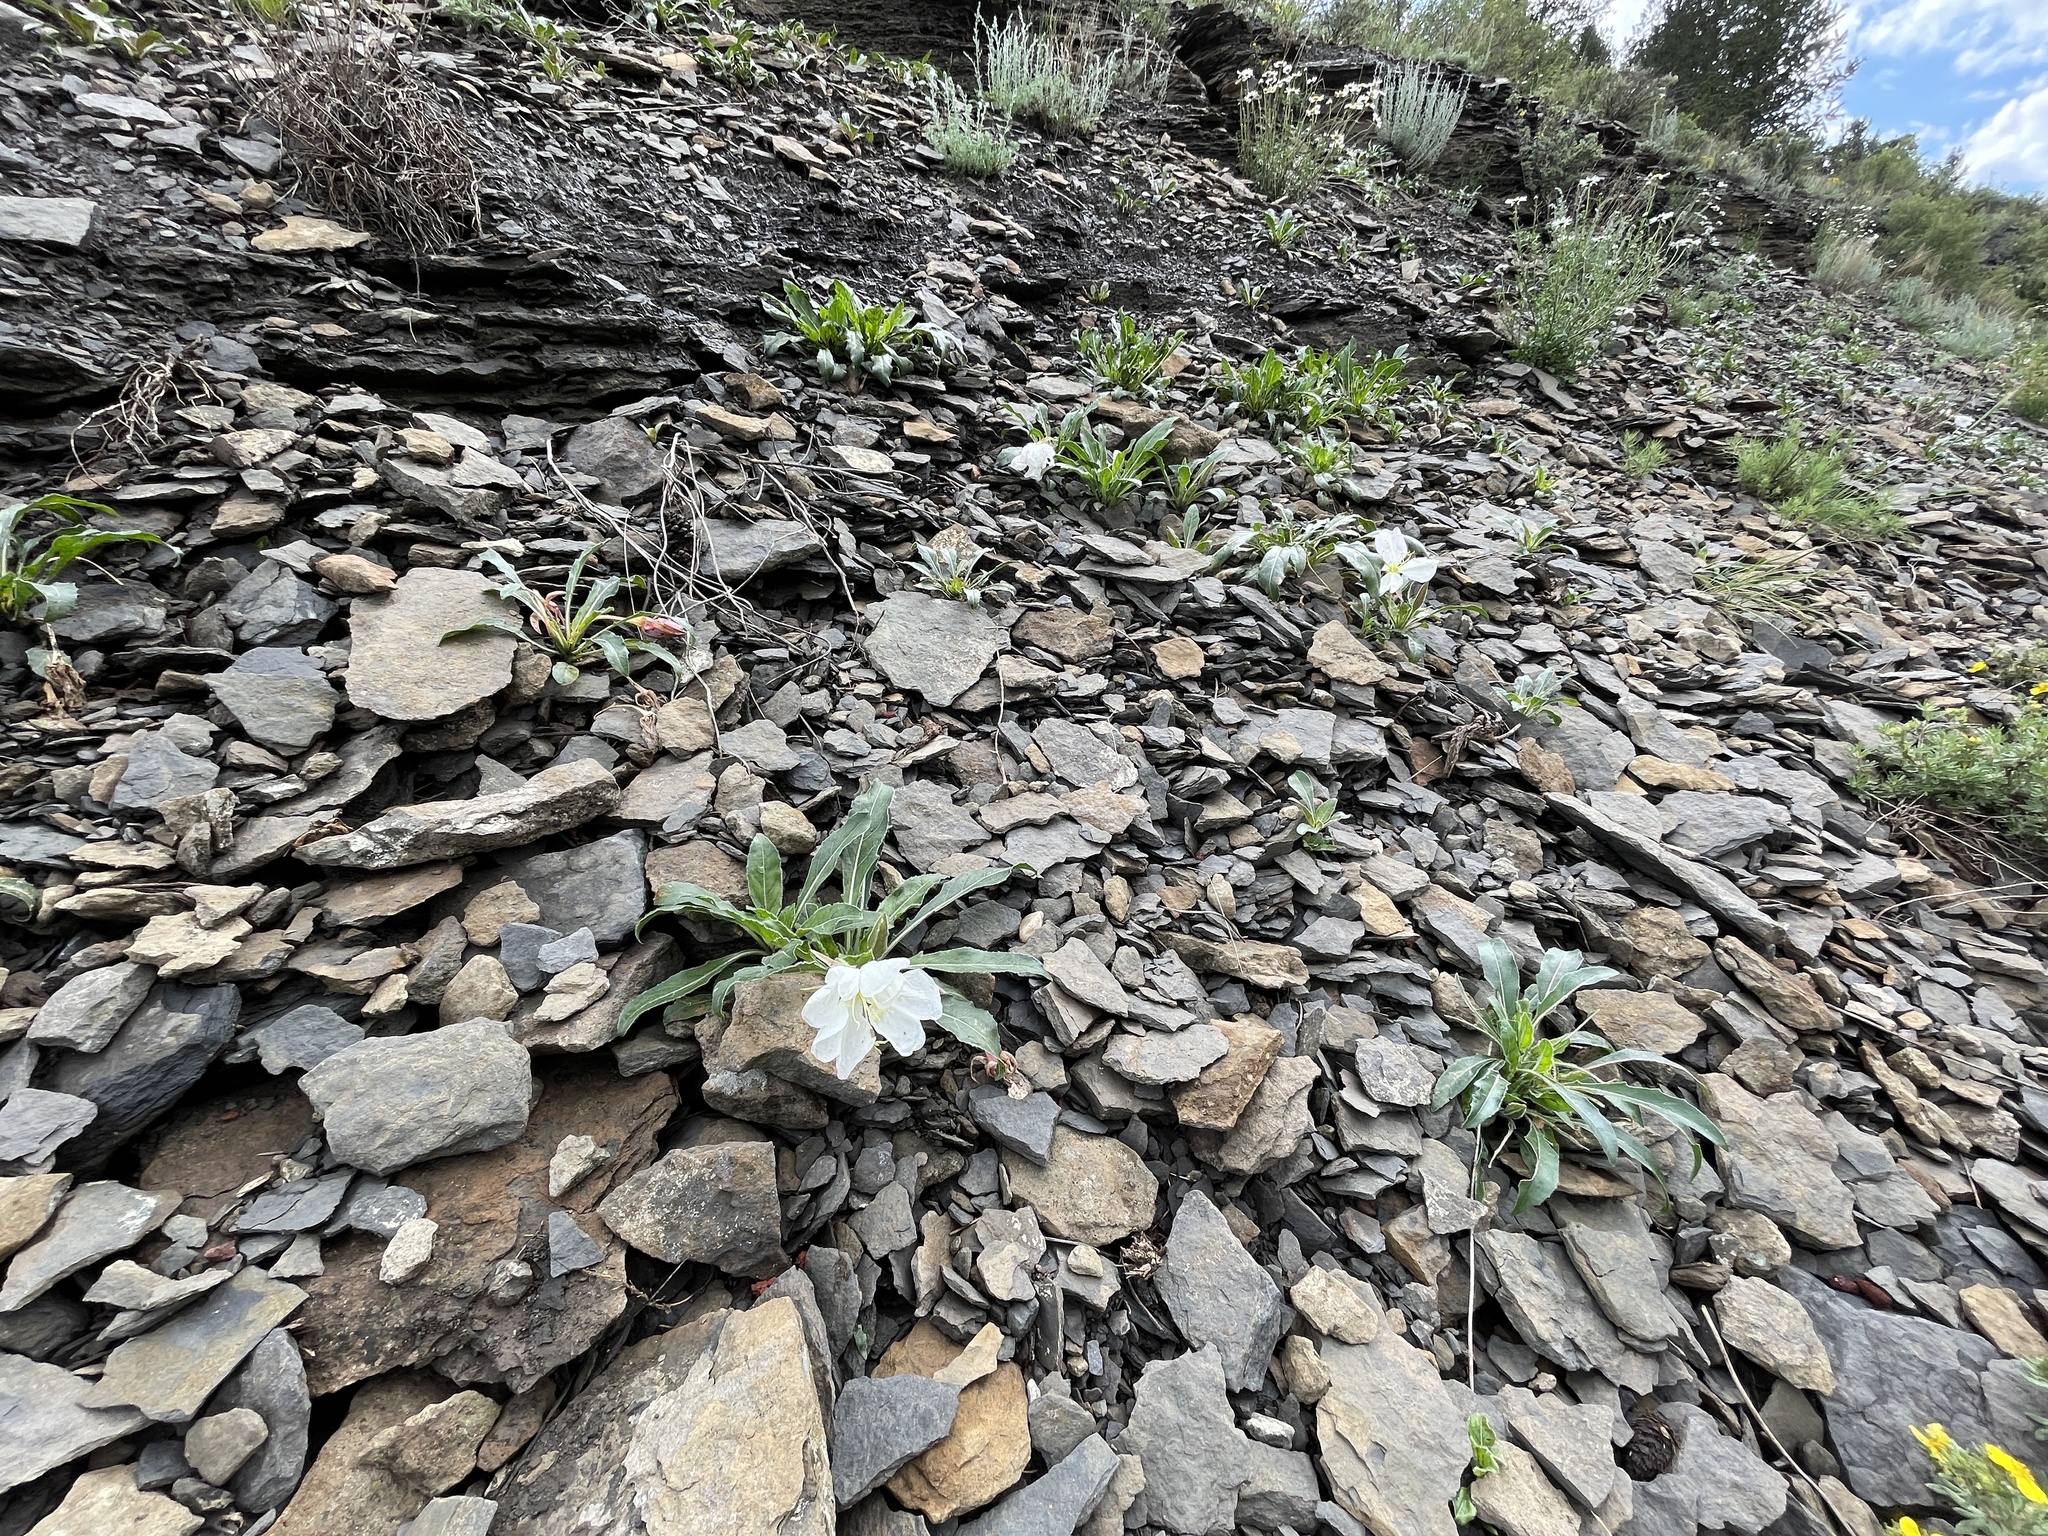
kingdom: Plantae
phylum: Tracheophyta
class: Magnoliopsida
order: Myrtales
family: Onagraceae
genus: Oenothera
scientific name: Oenothera cespitosa
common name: Tufted evening-primrose
